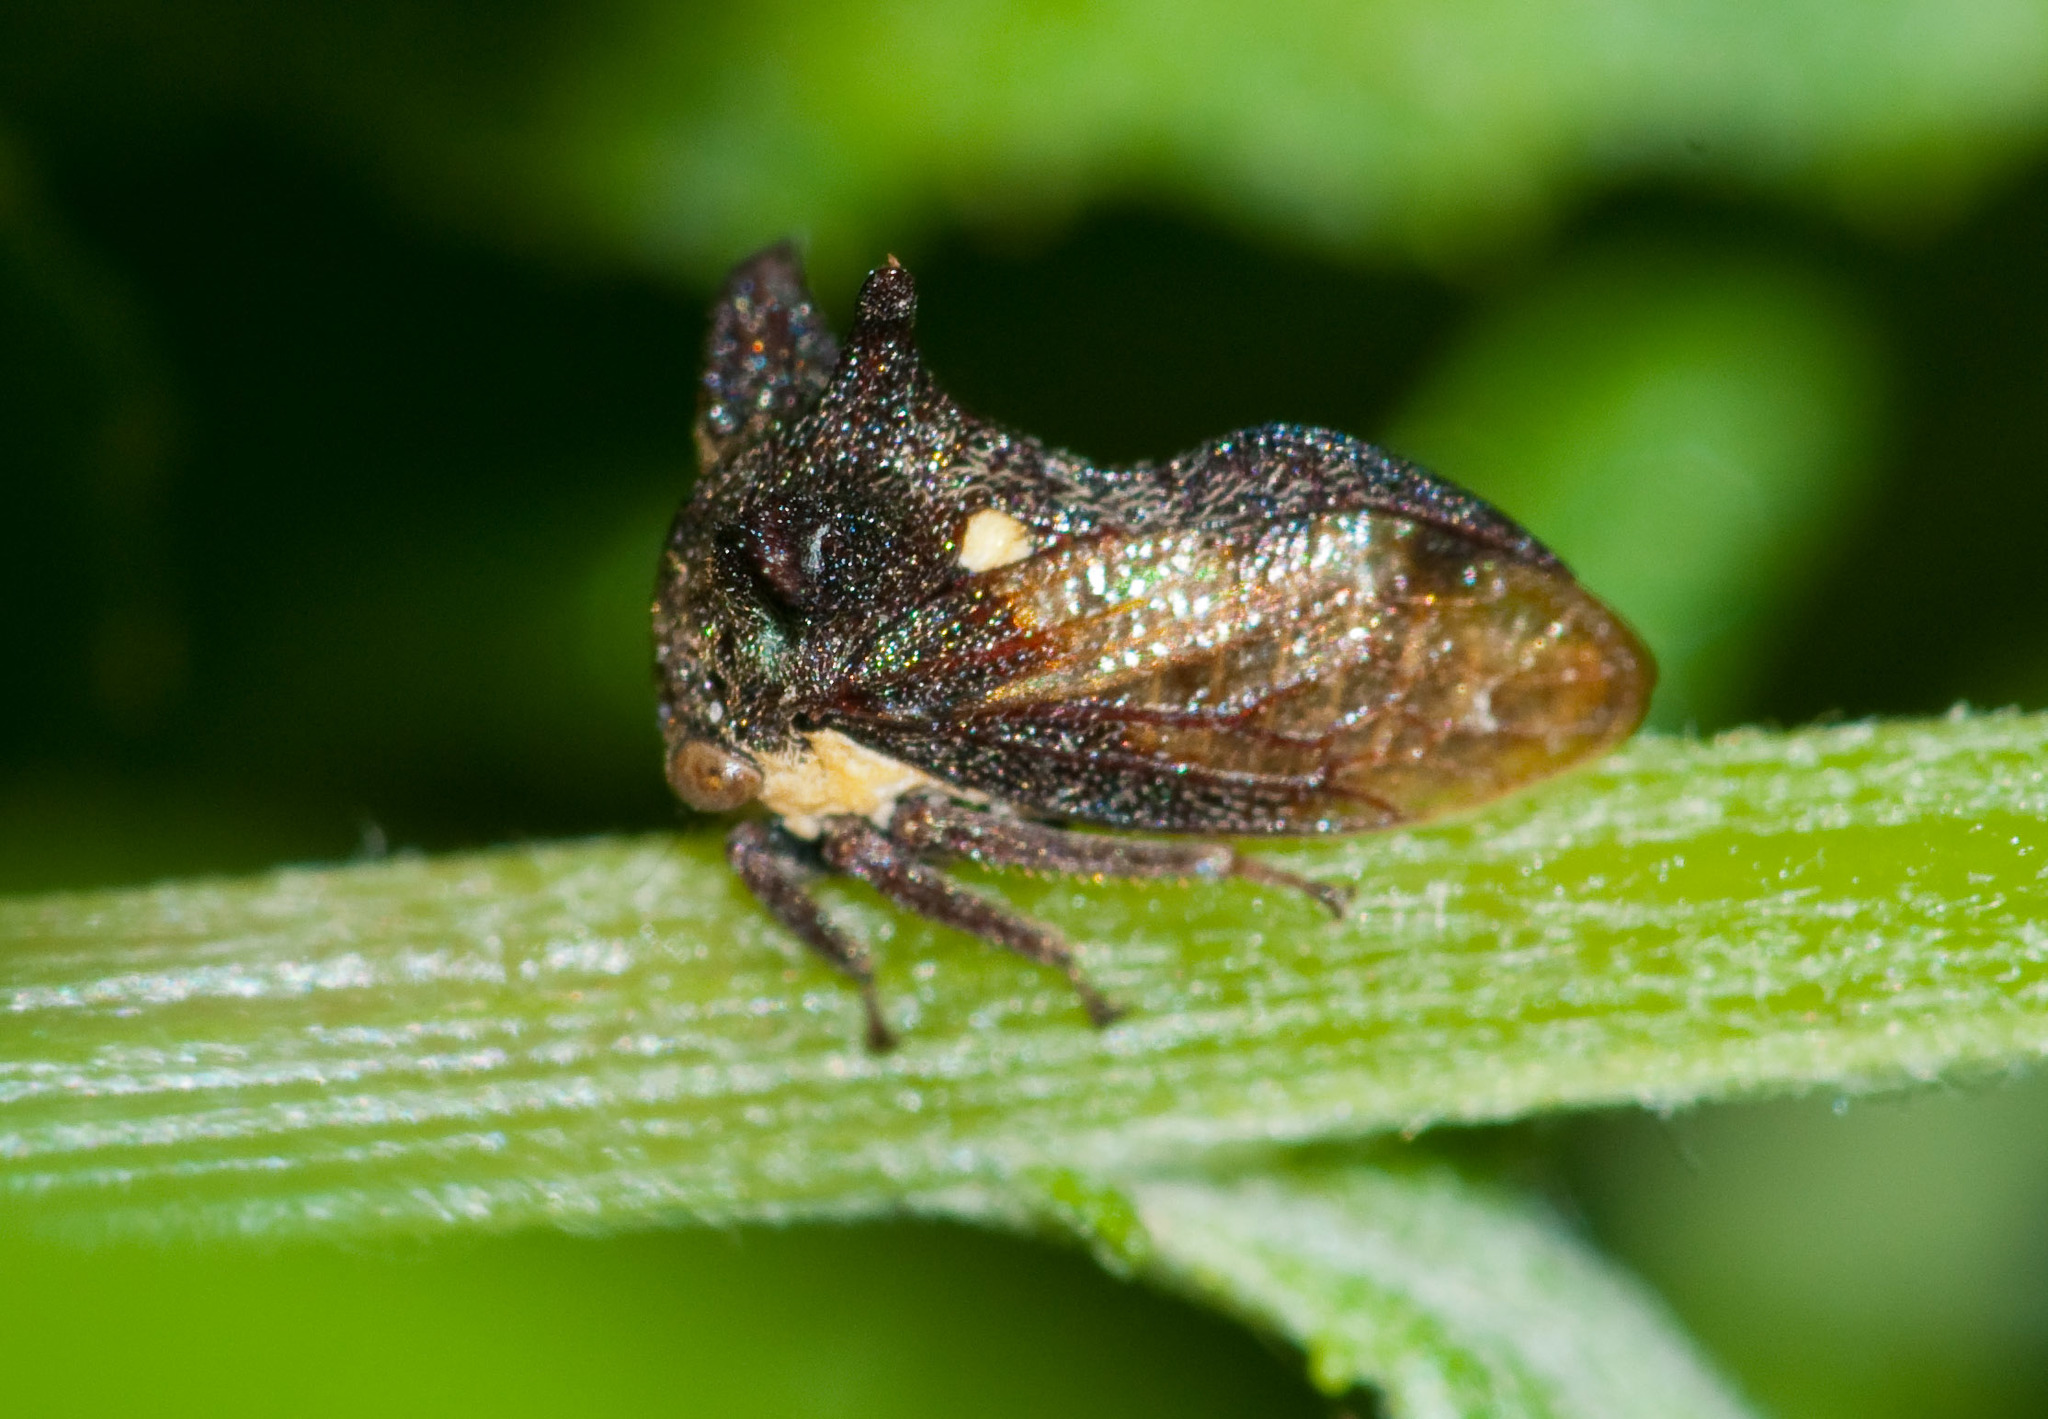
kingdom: Animalia
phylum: Arthropoda
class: Insecta
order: Hemiptera
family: Membracidae
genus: Acanthuchus
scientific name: Acanthuchus trispinifer
